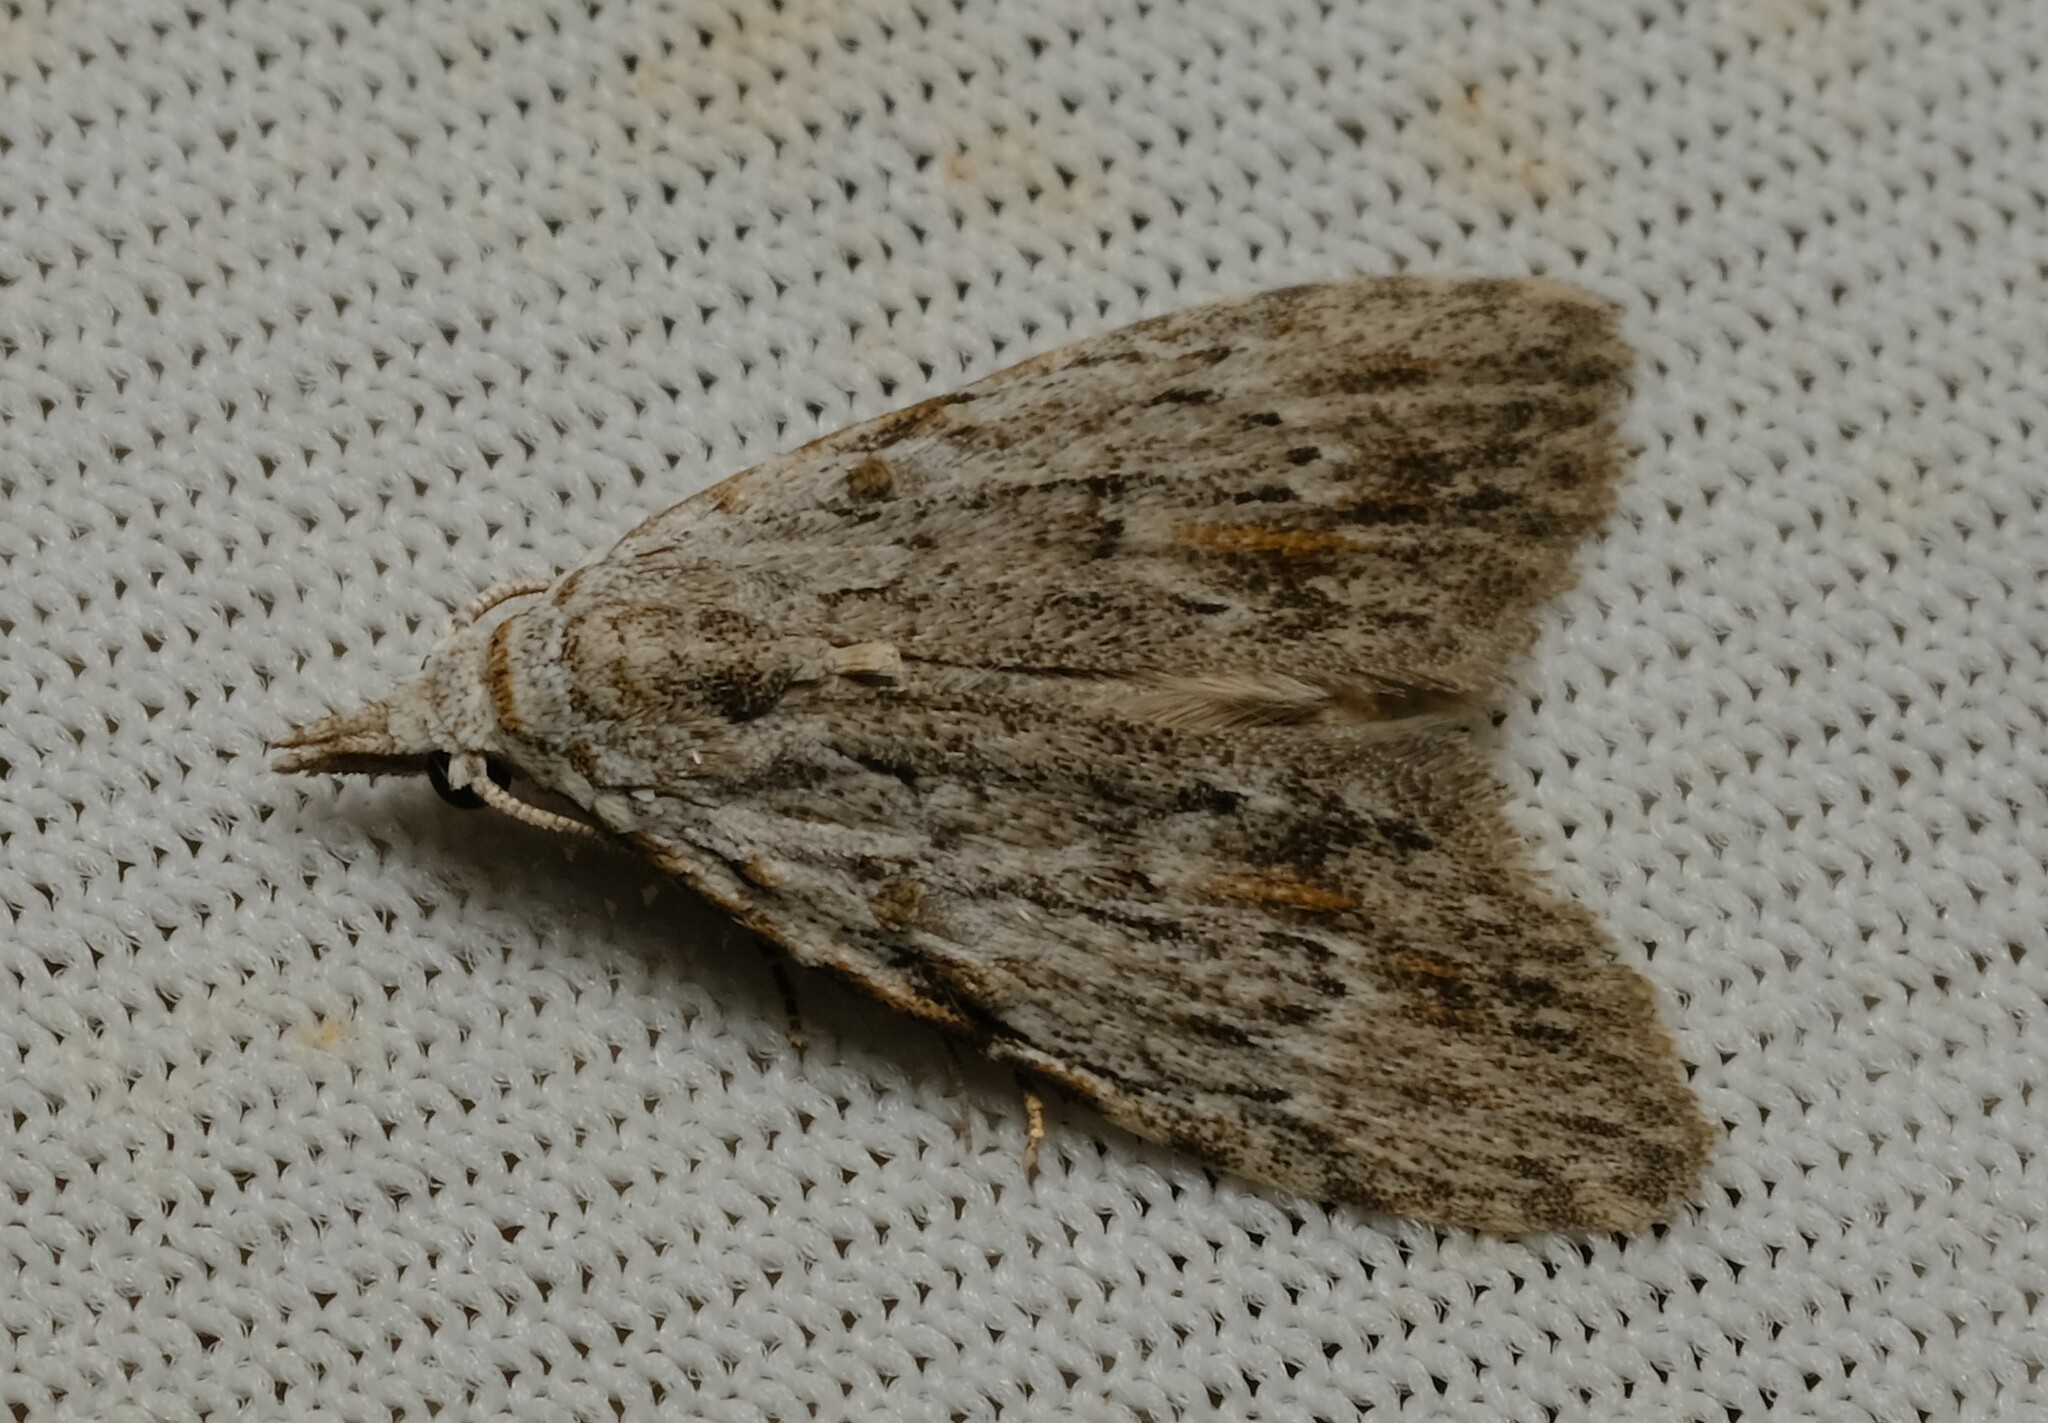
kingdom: Animalia
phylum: Arthropoda
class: Insecta
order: Lepidoptera
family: Nolidae
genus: Nola
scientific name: Nola crucigera
